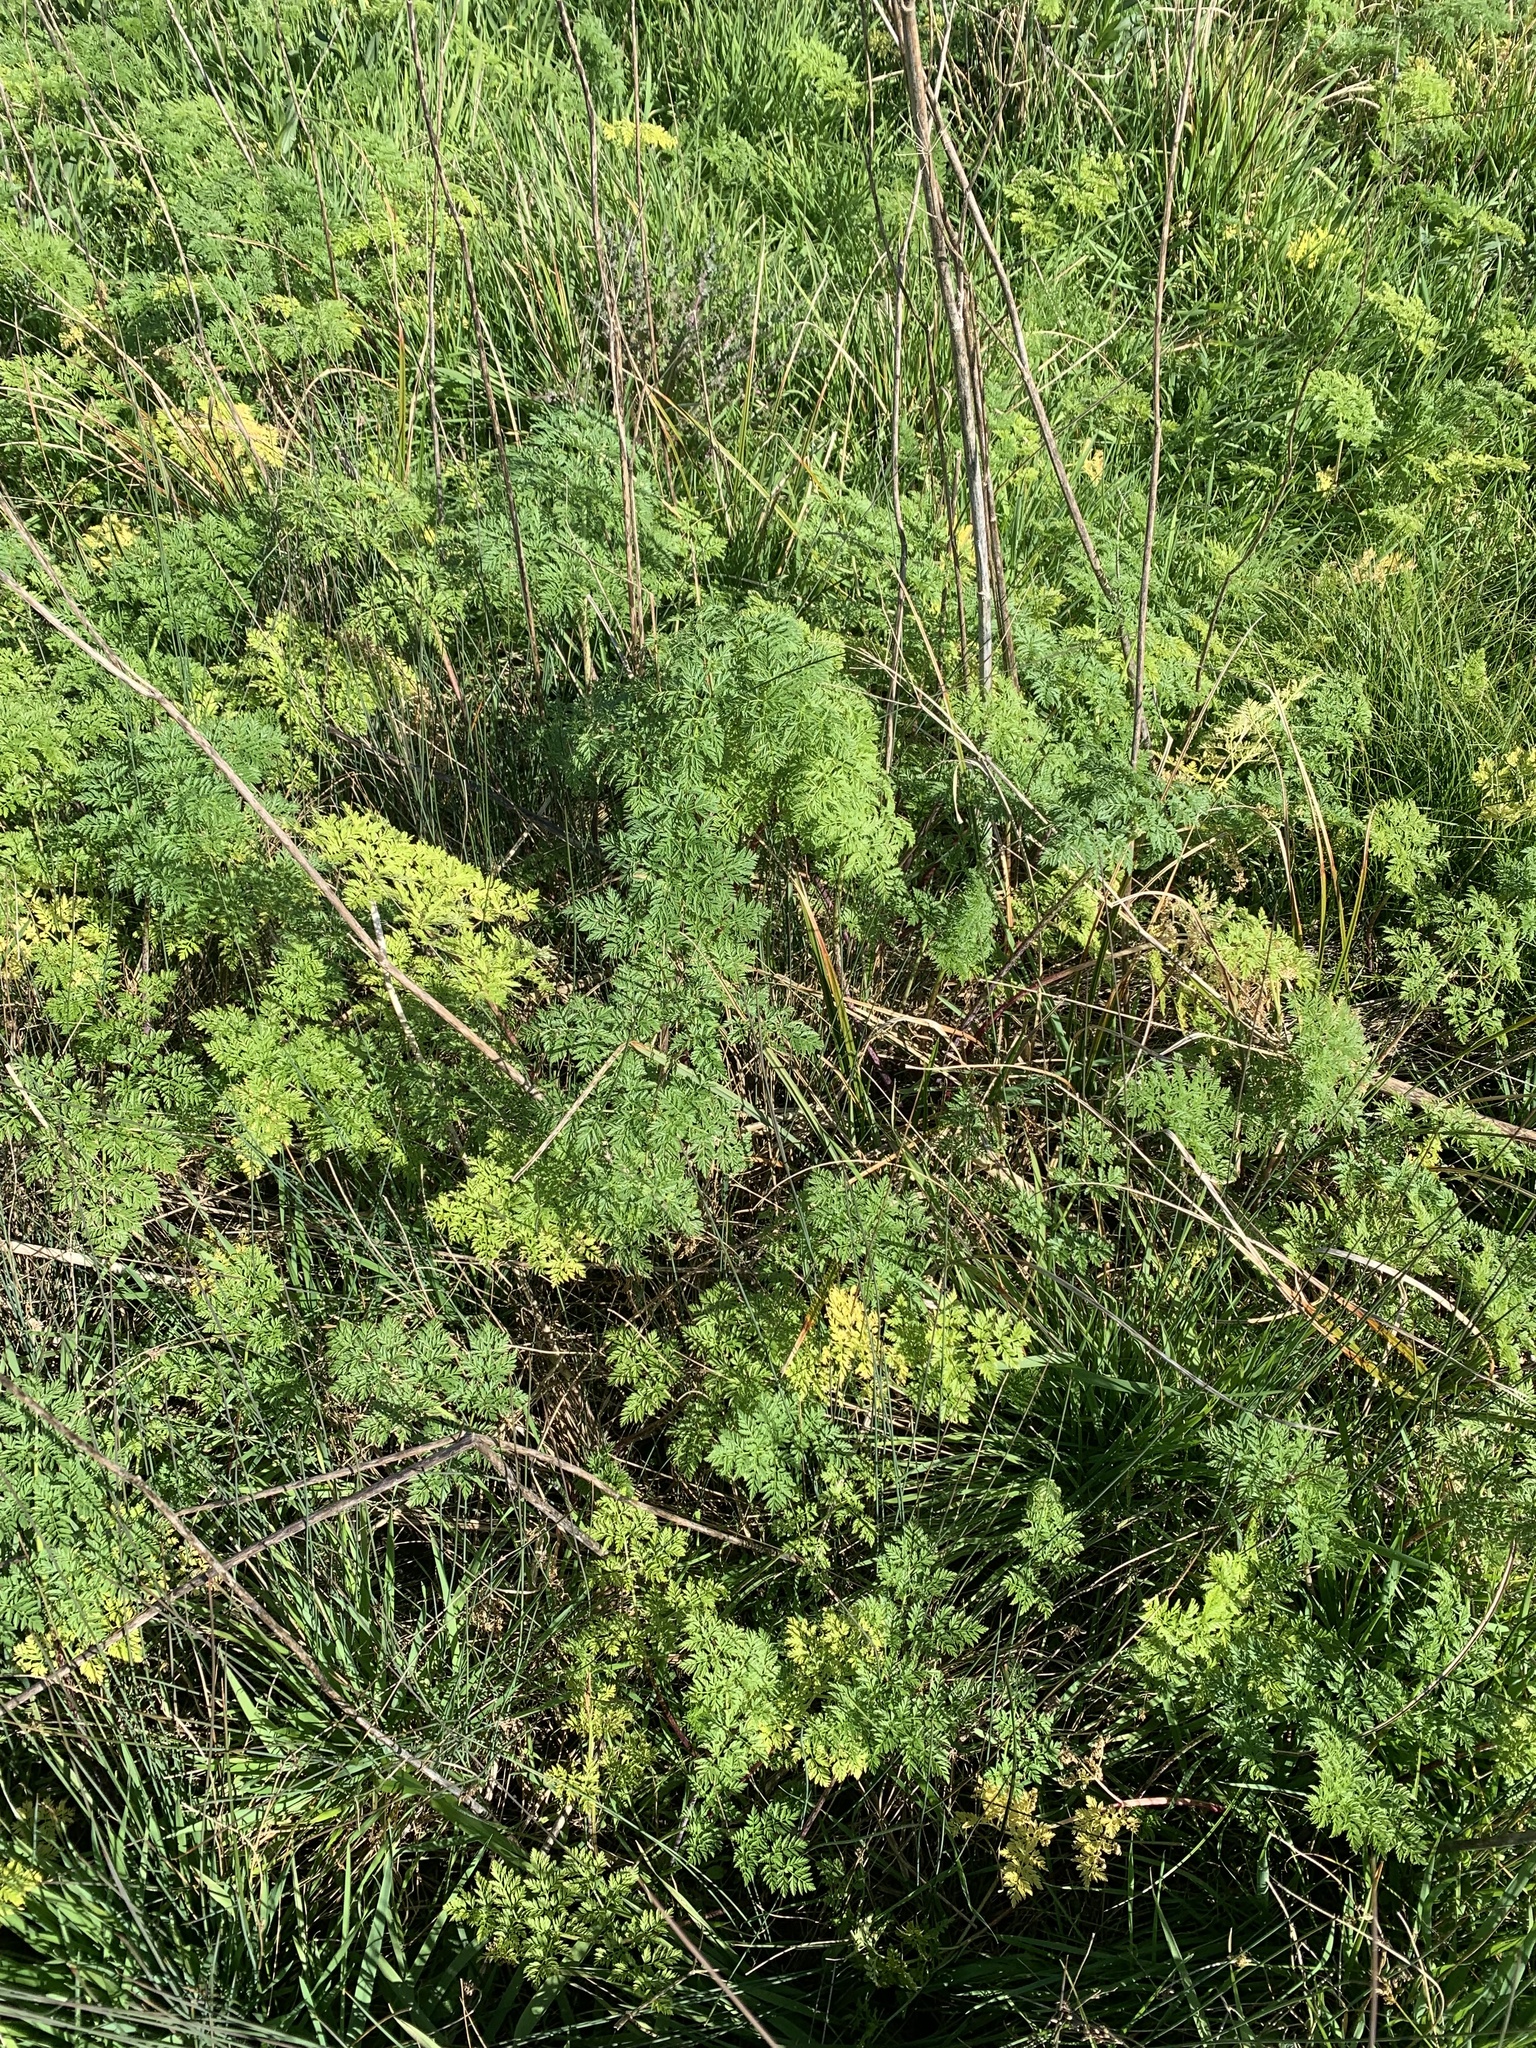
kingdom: Plantae
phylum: Tracheophyta
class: Magnoliopsida
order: Apiales
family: Apiaceae
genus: Conium
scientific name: Conium maculatum
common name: Hemlock
